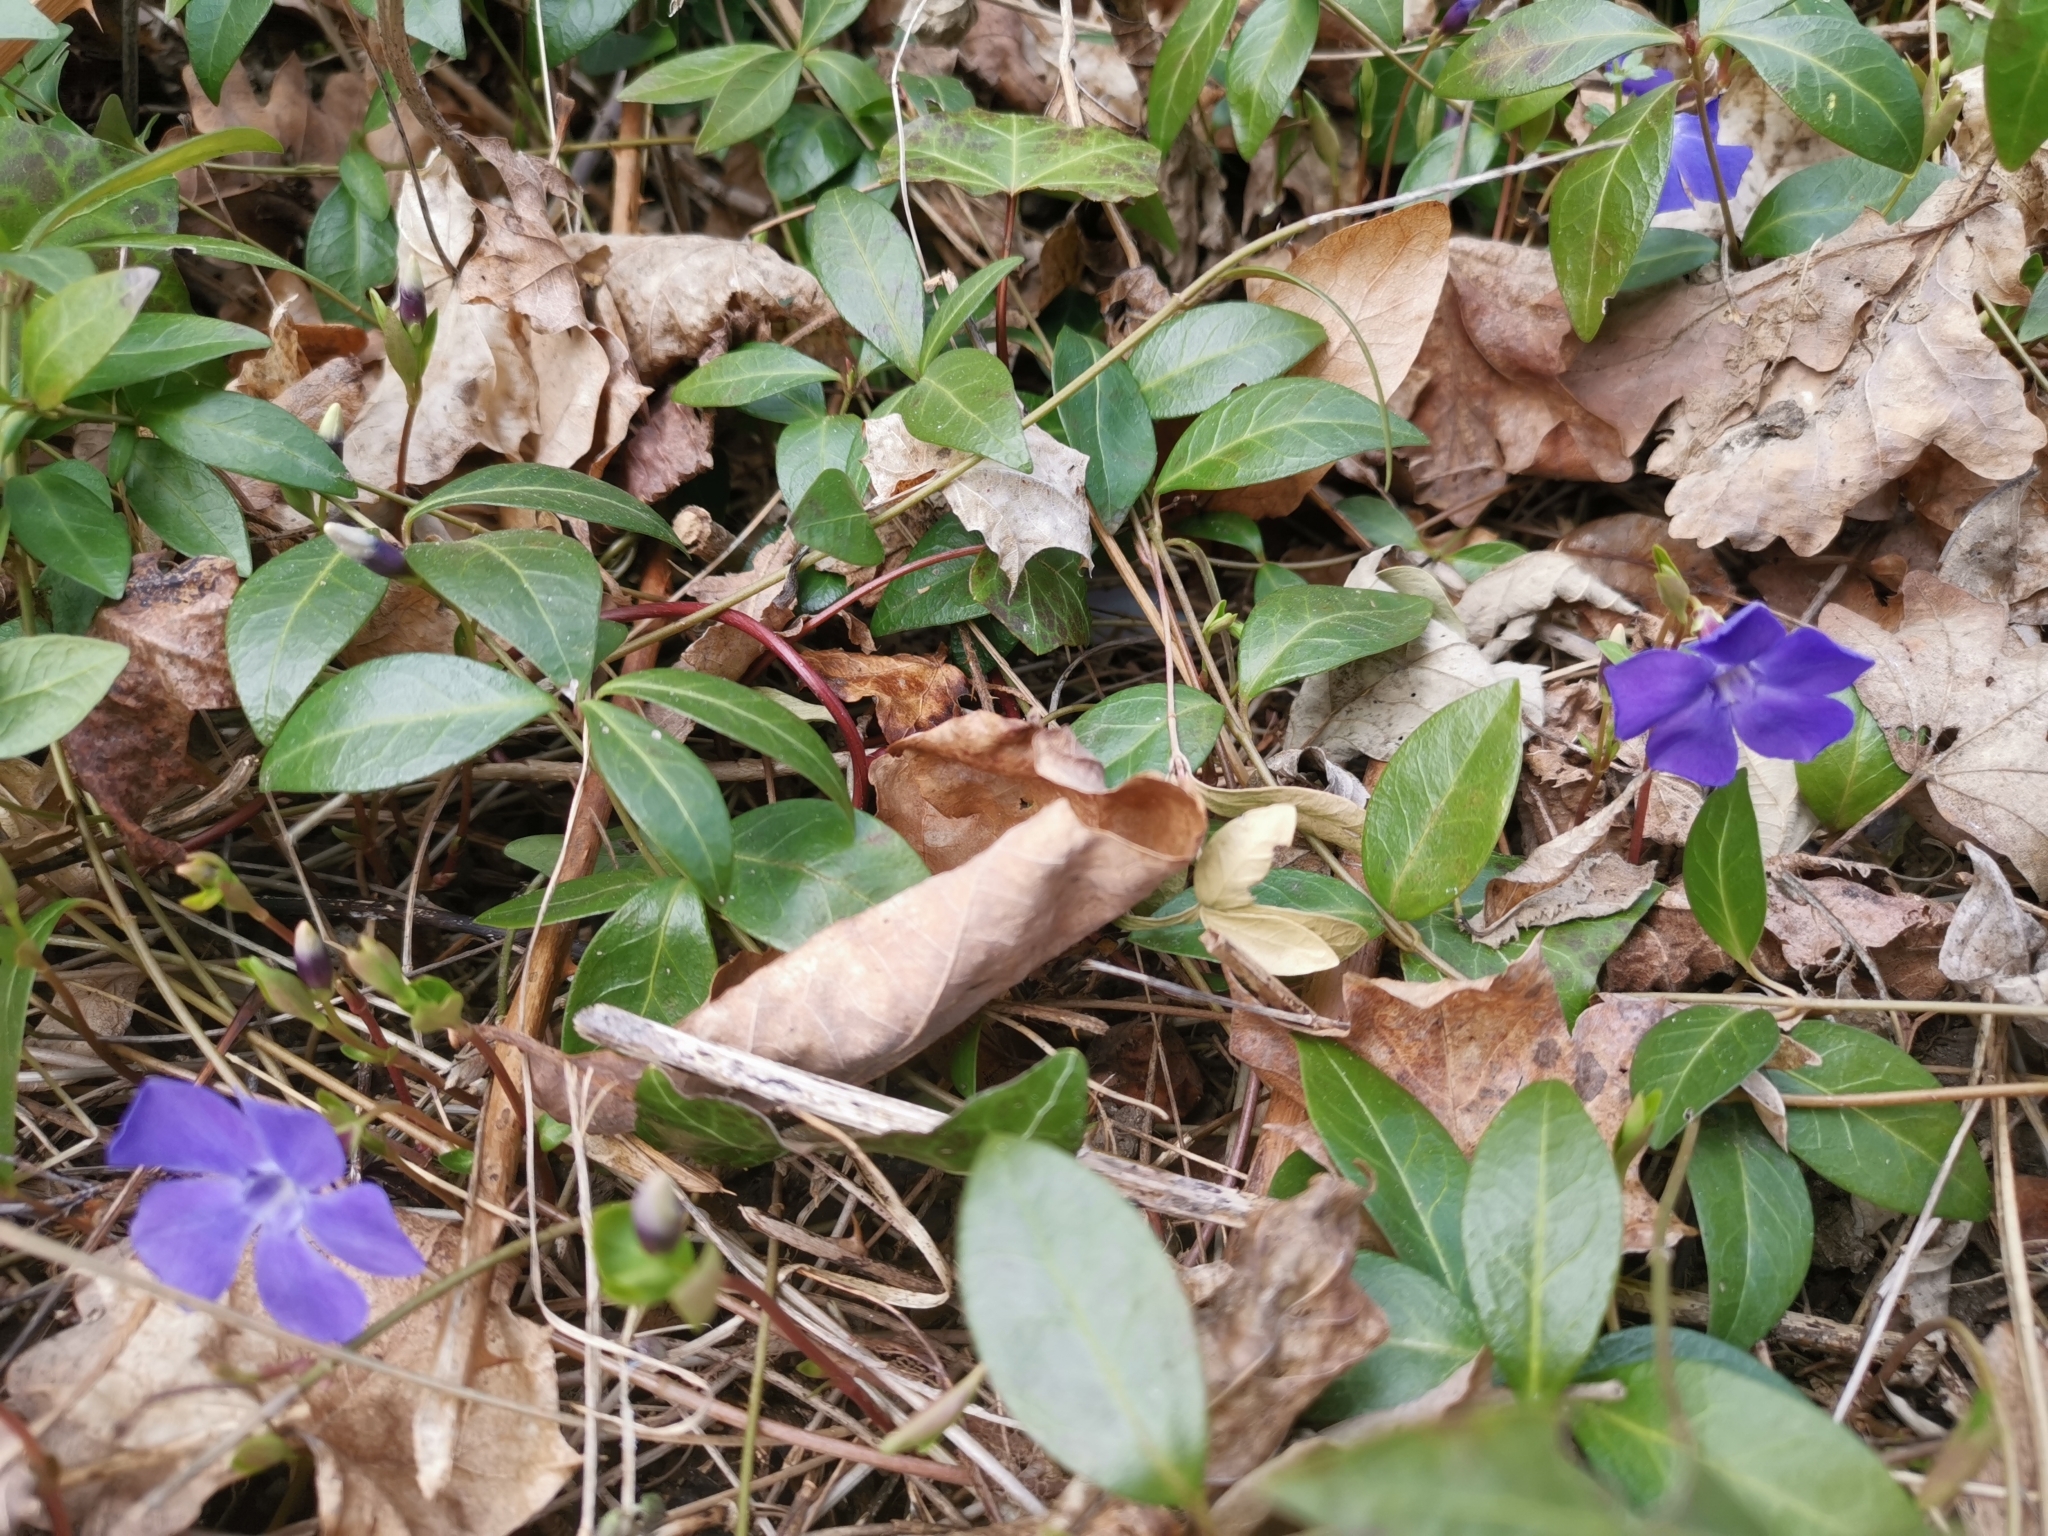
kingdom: Plantae
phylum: Tracheophyta
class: Magnoliopsida
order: Gentianales
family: Apocynaceae
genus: Vinca
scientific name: Vinca minor
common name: Lesser periwinkle
